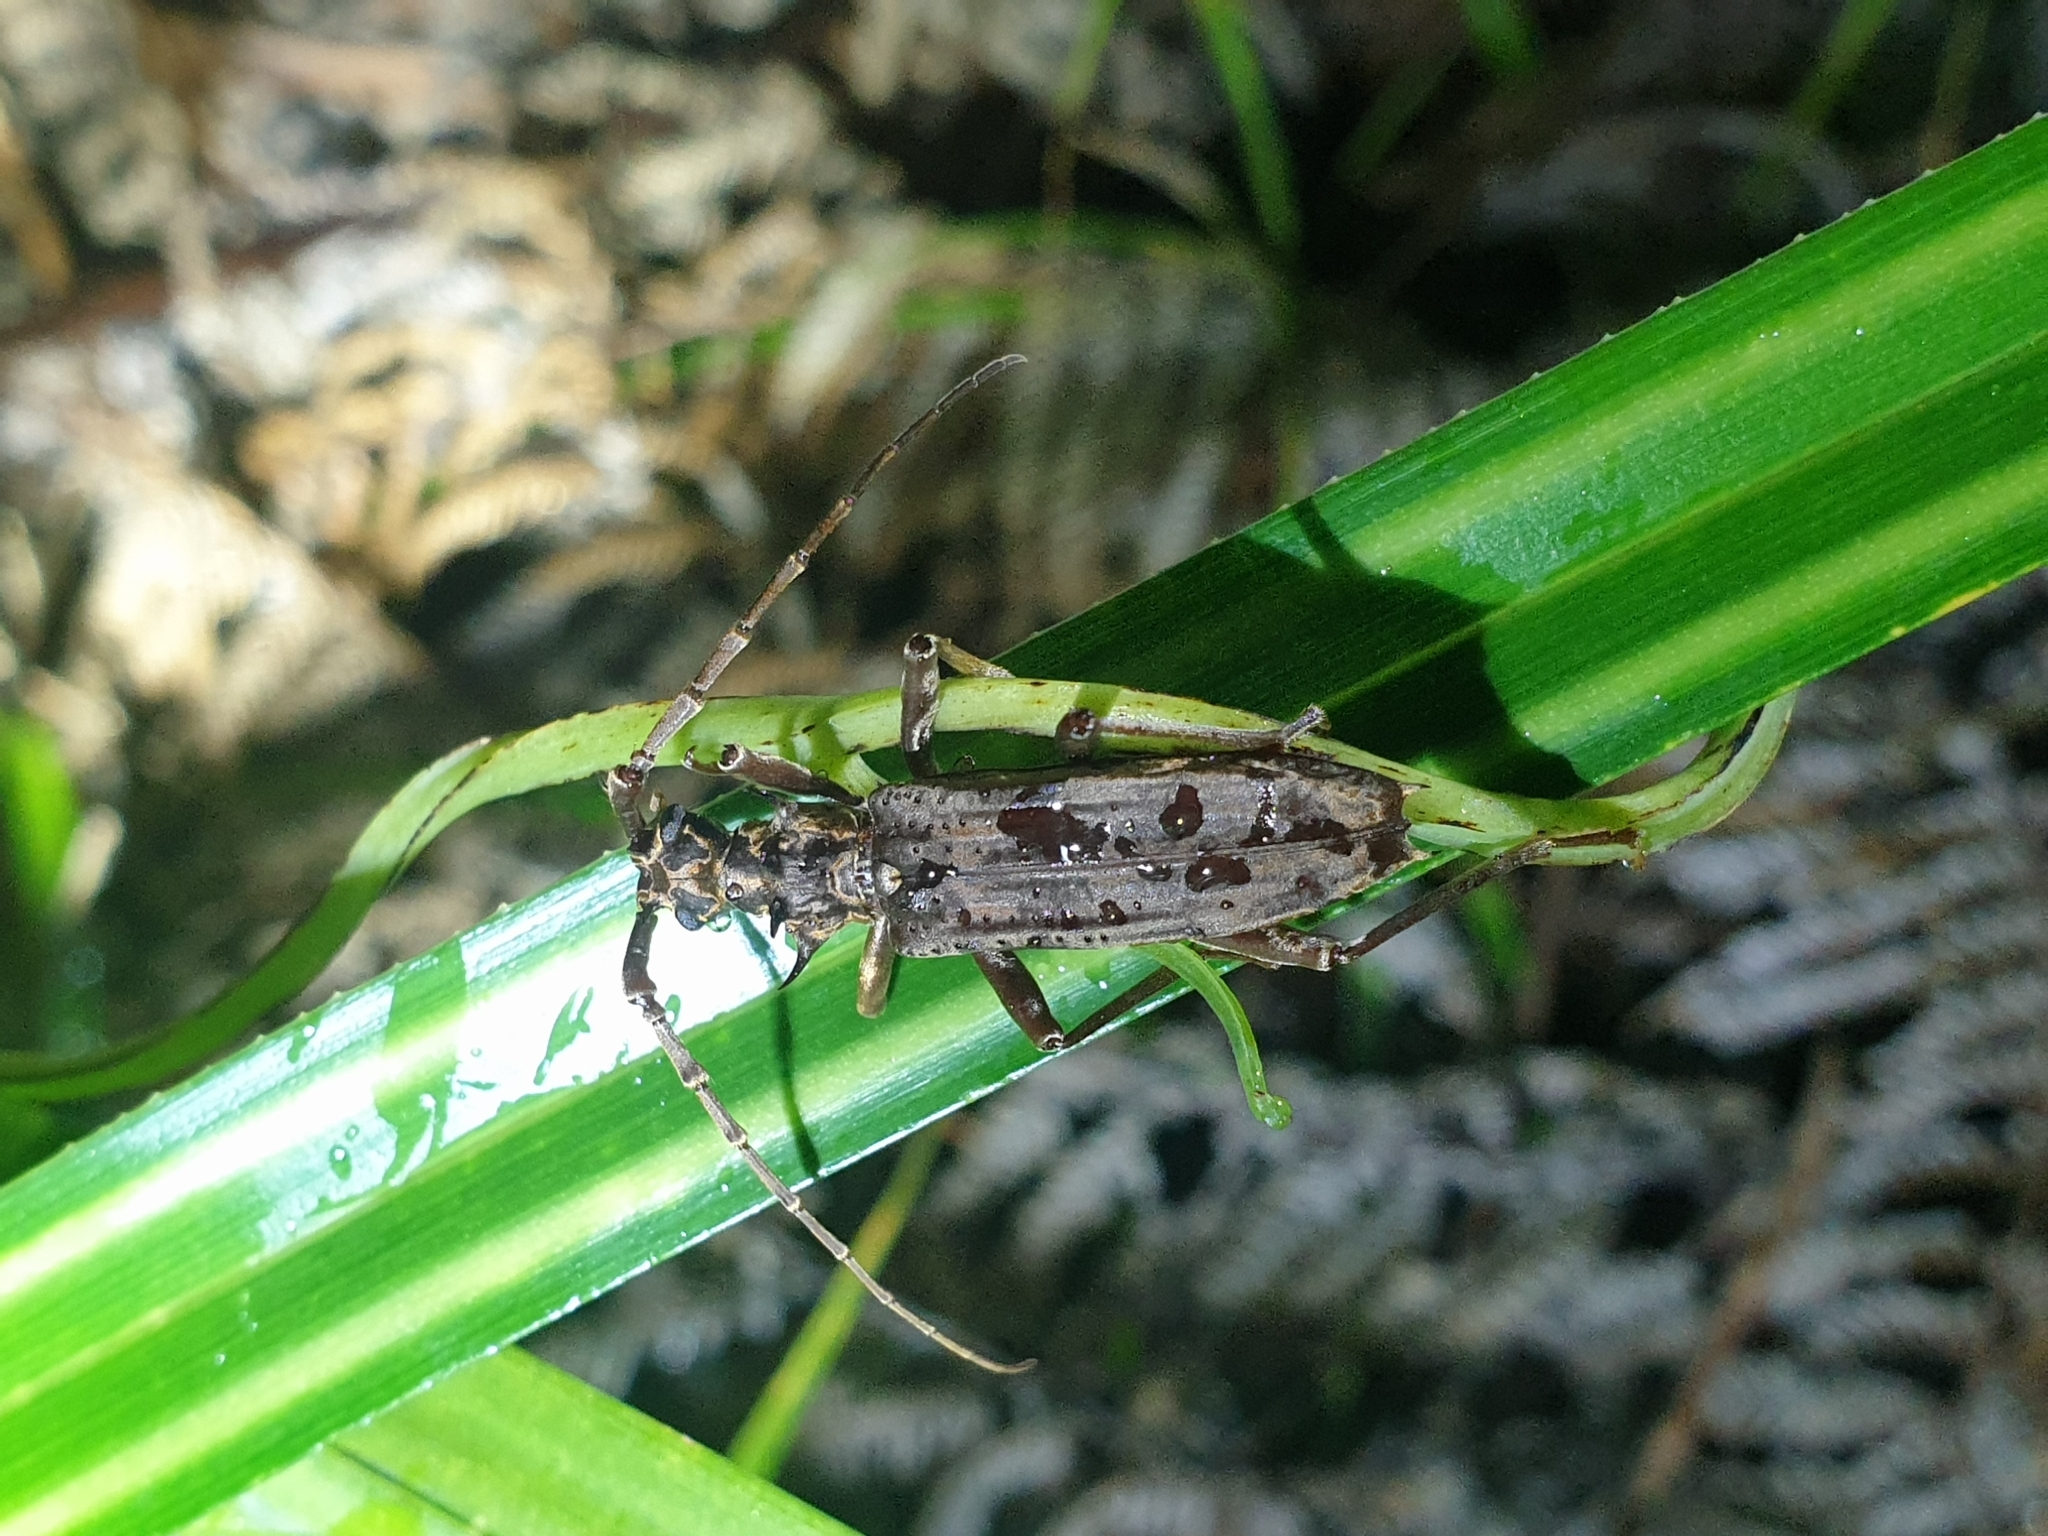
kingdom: Animalia
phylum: Arthropoda
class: Insecta
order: Coleoptera
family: Cerambycidae
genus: Blosyropus
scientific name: Blosyropus spinosus
